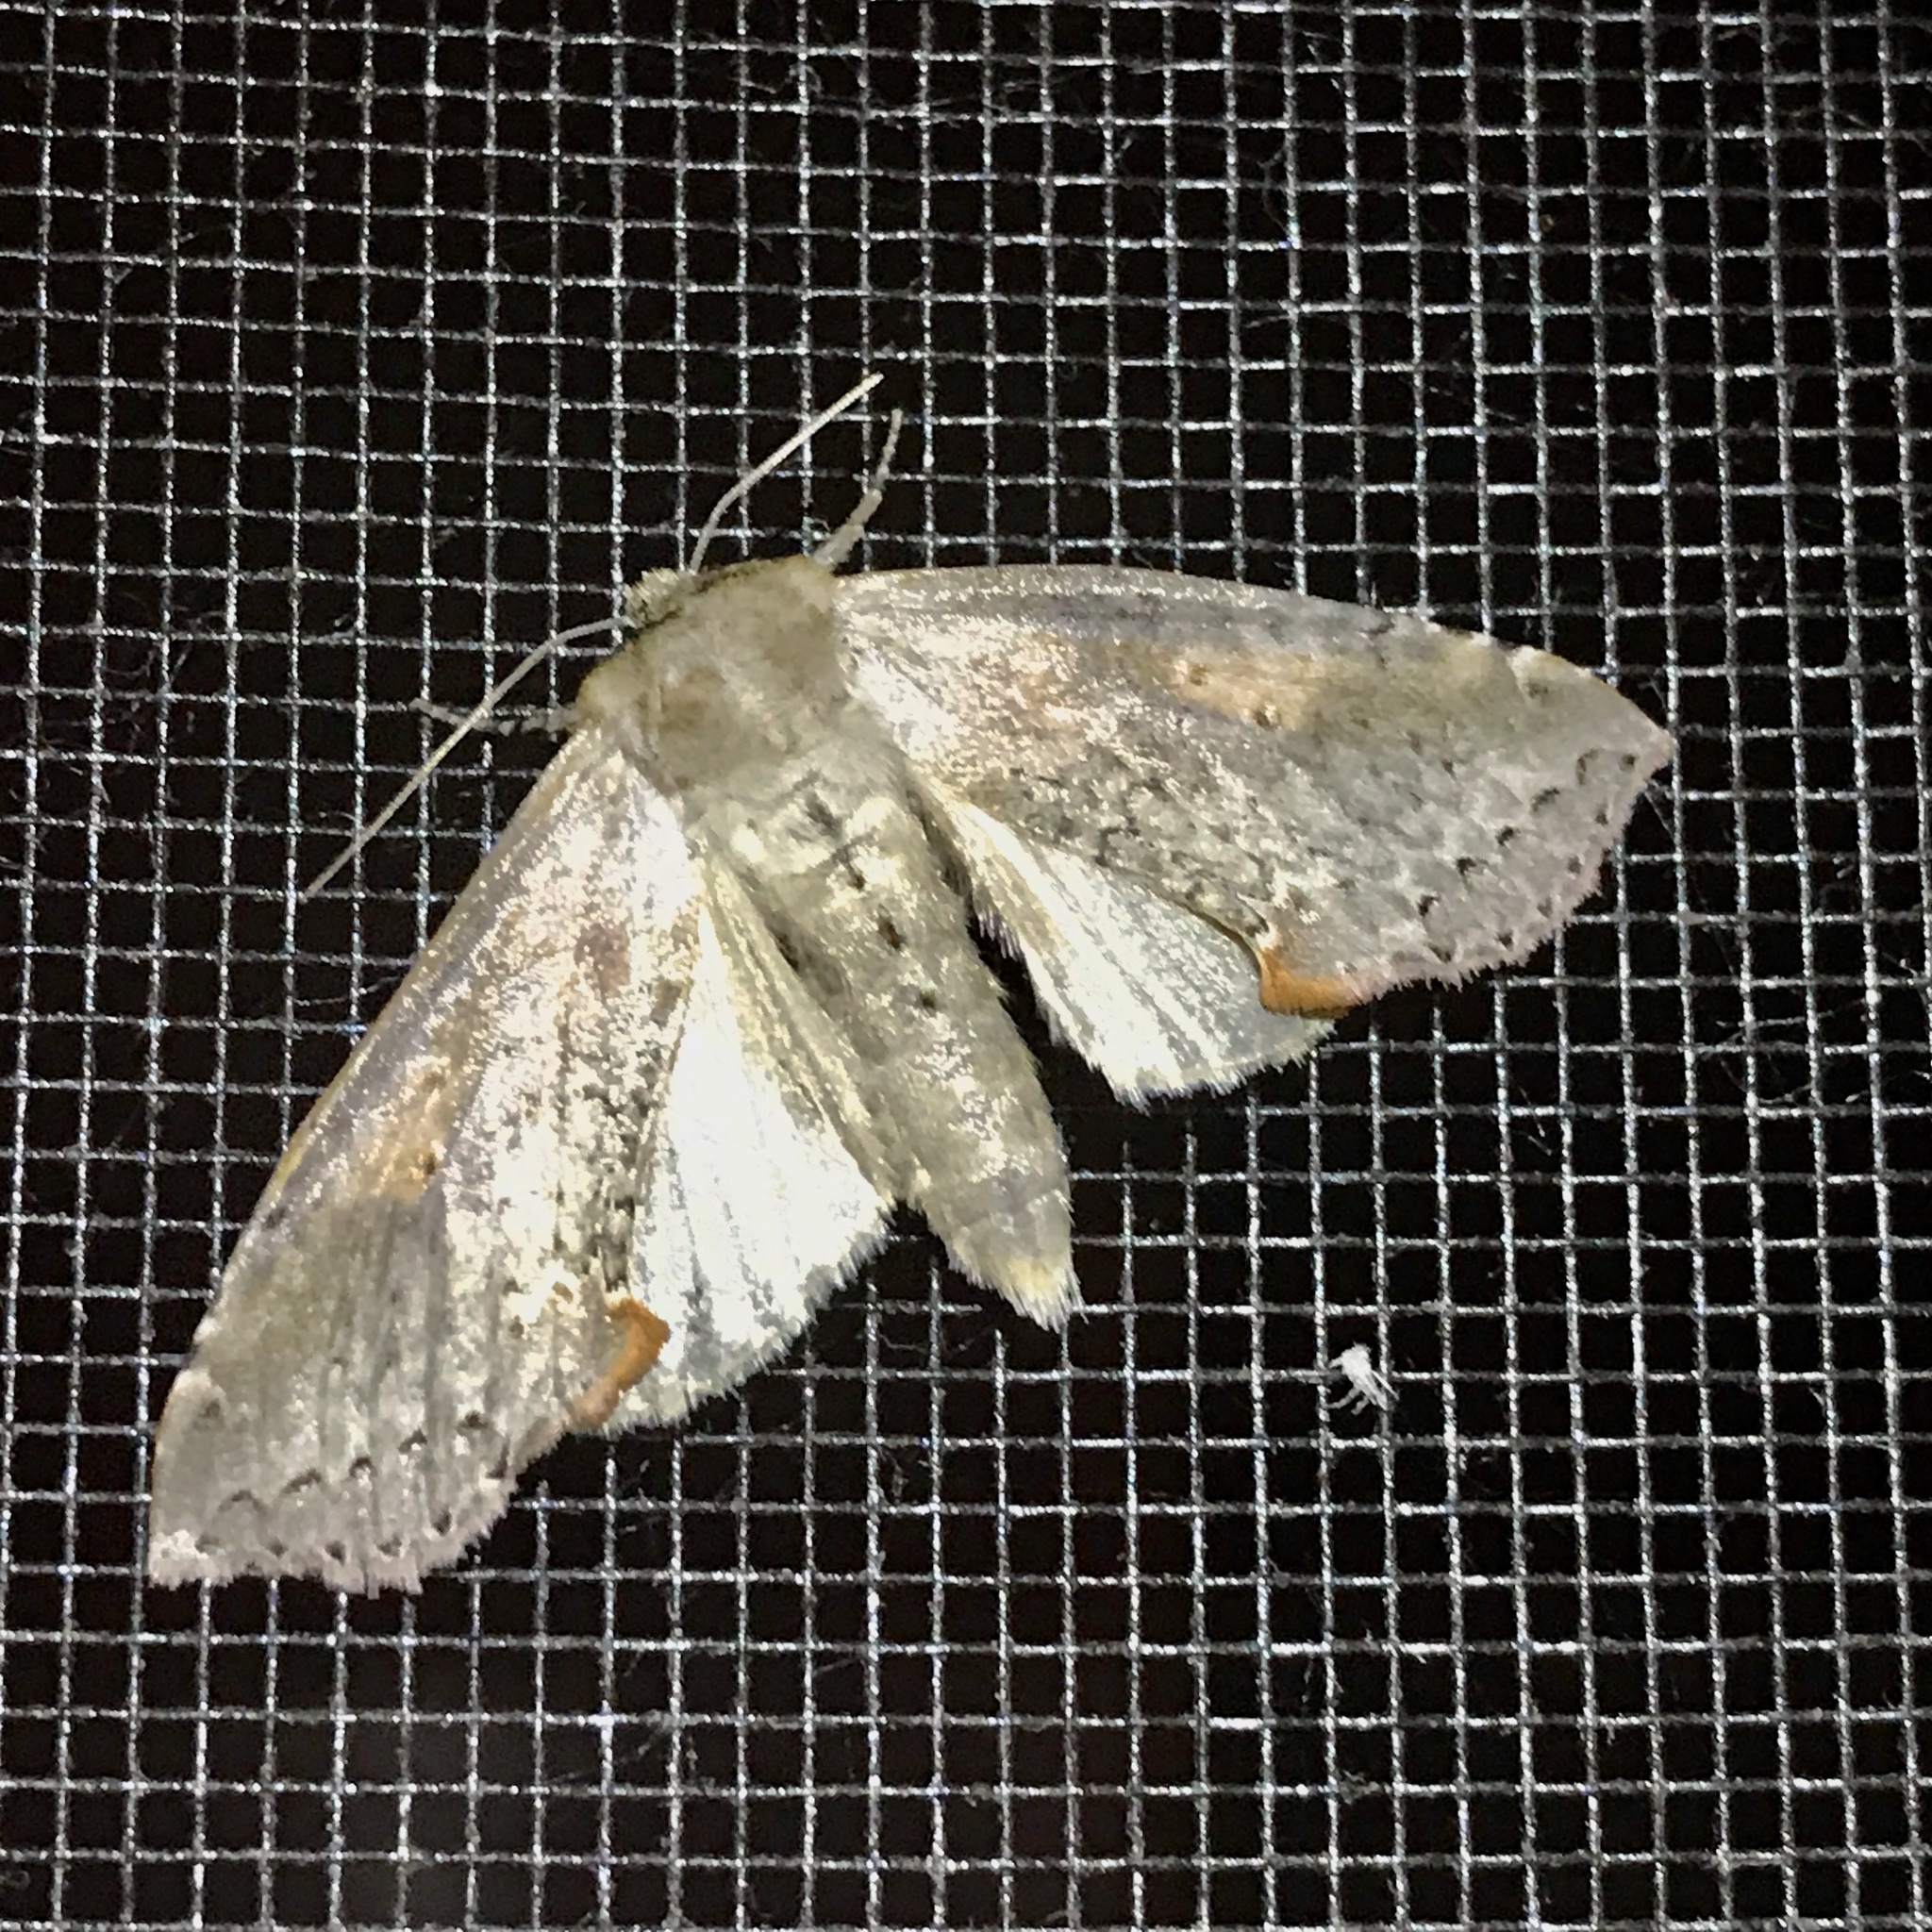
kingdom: Animalia
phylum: Arthropoda
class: Insecta
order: Lepidoptera
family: Drepanidae
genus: Pseudothyatira
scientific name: Pseudothyatira cymatophoroides
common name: Tufted thyatirid moth
